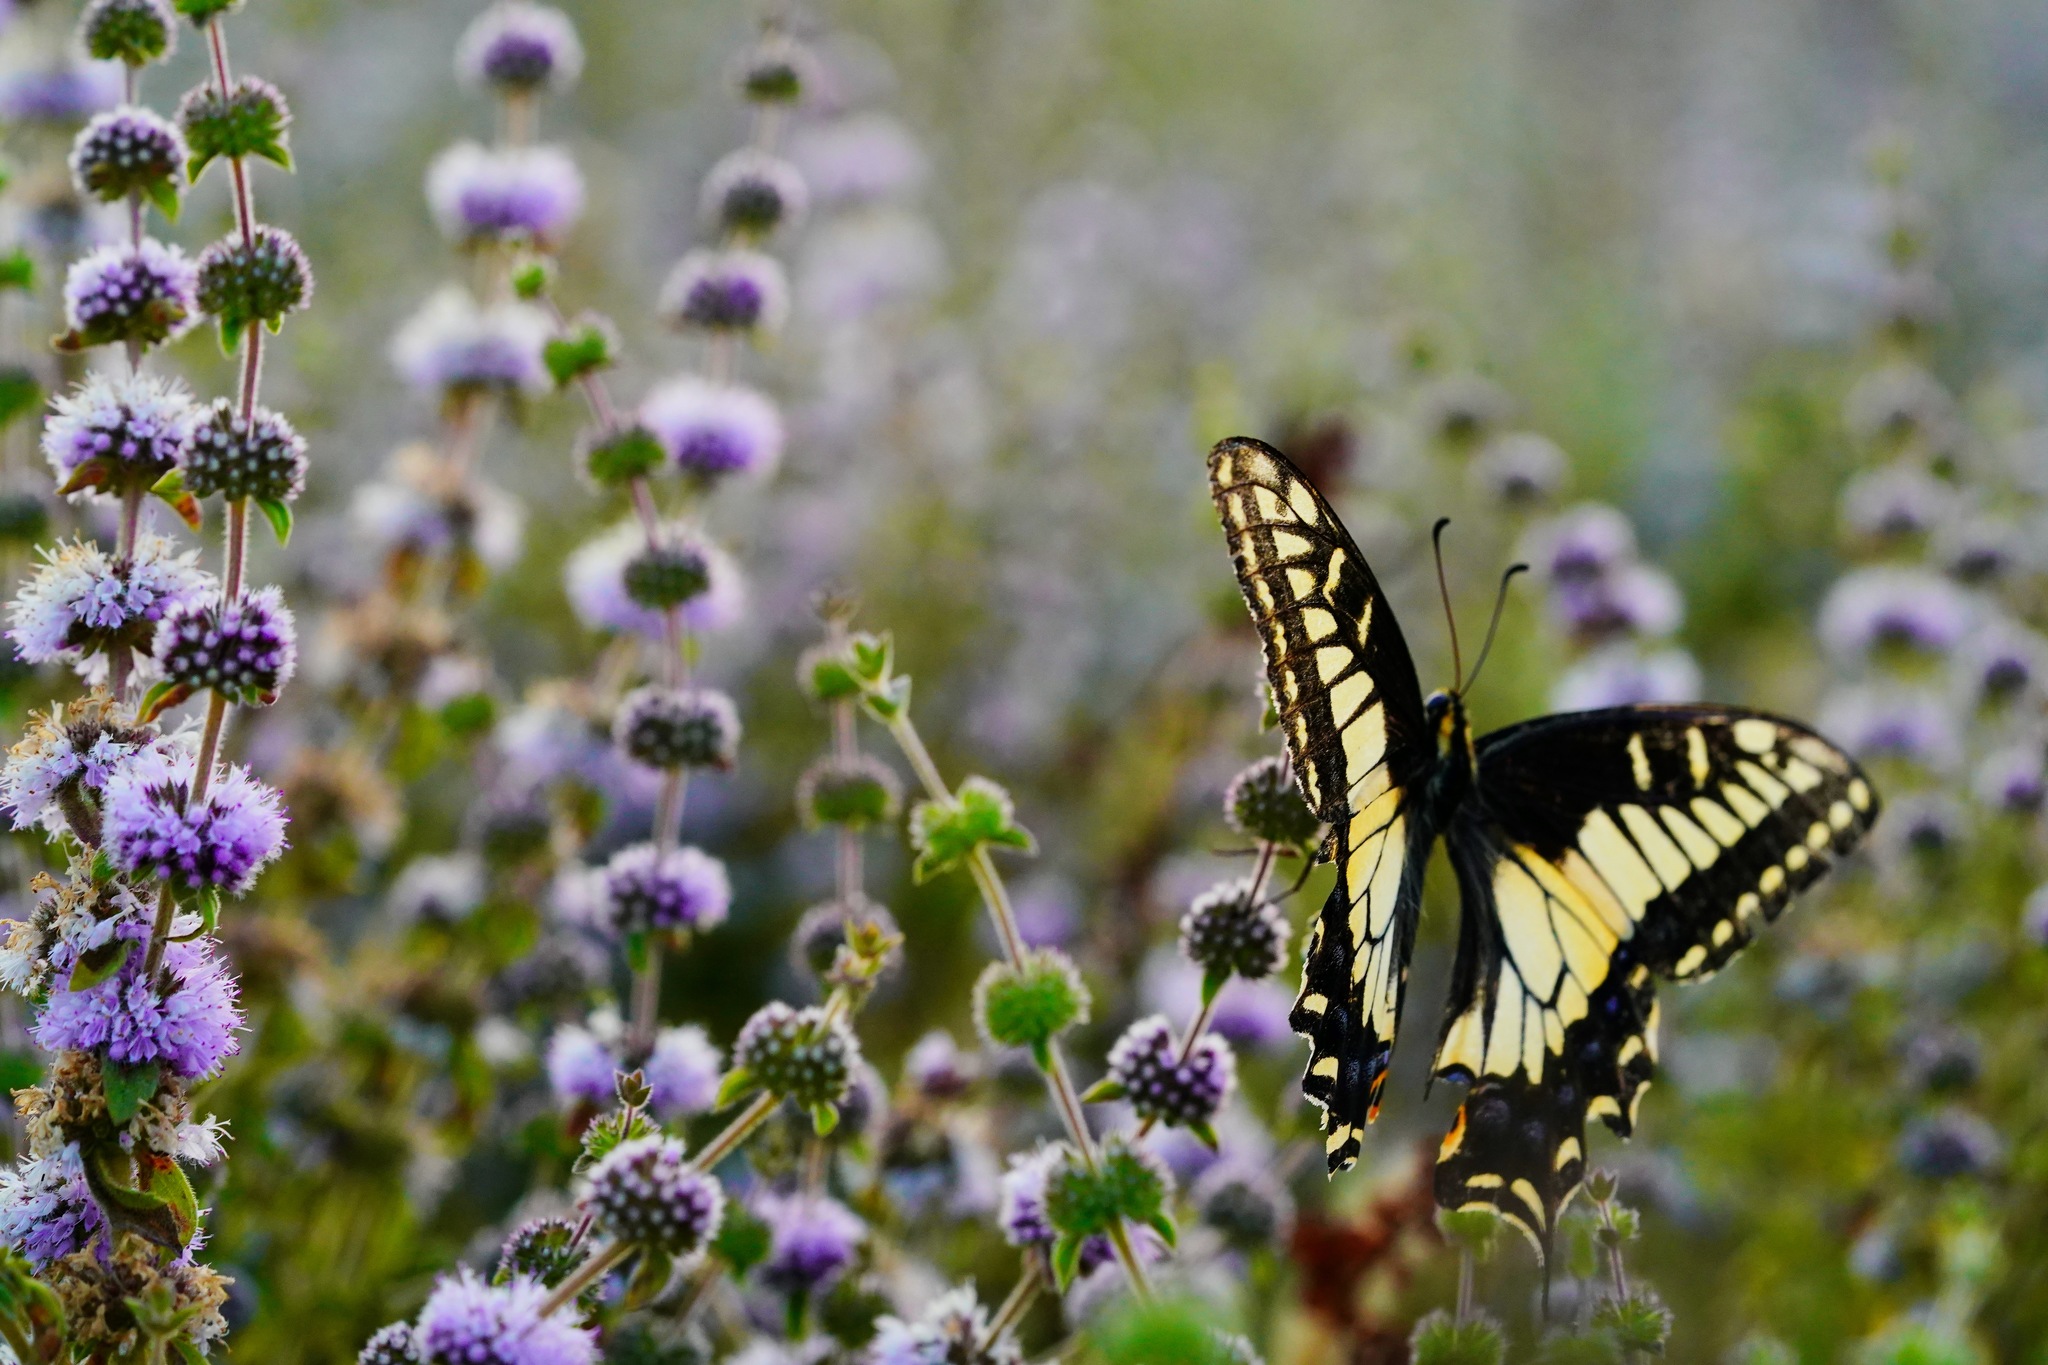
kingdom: Animalia
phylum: Arthropoda
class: Insecta
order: Lepidoptera
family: Papilionidae
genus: Papilio
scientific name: Papilio zelicaon
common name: Anise swallowtail
